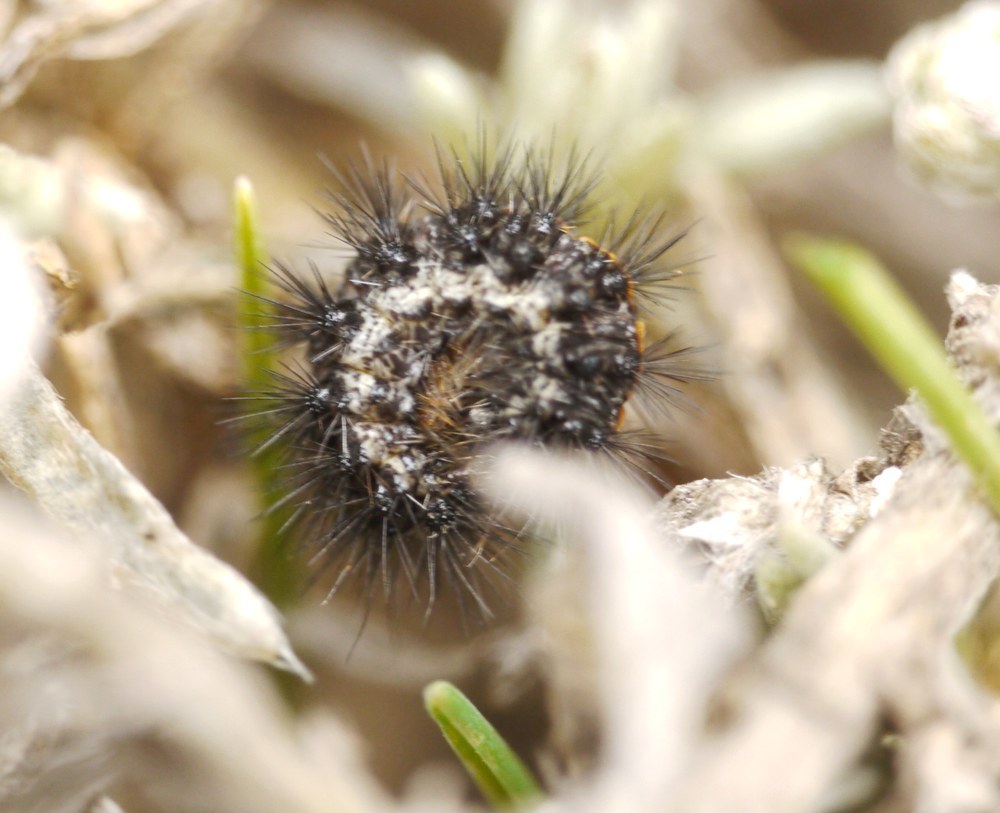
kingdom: Animalia
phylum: Arthropoda
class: Insecta
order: Lepidoptera
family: Erebidae
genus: Coscinia
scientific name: Coscinia Spiris striata
